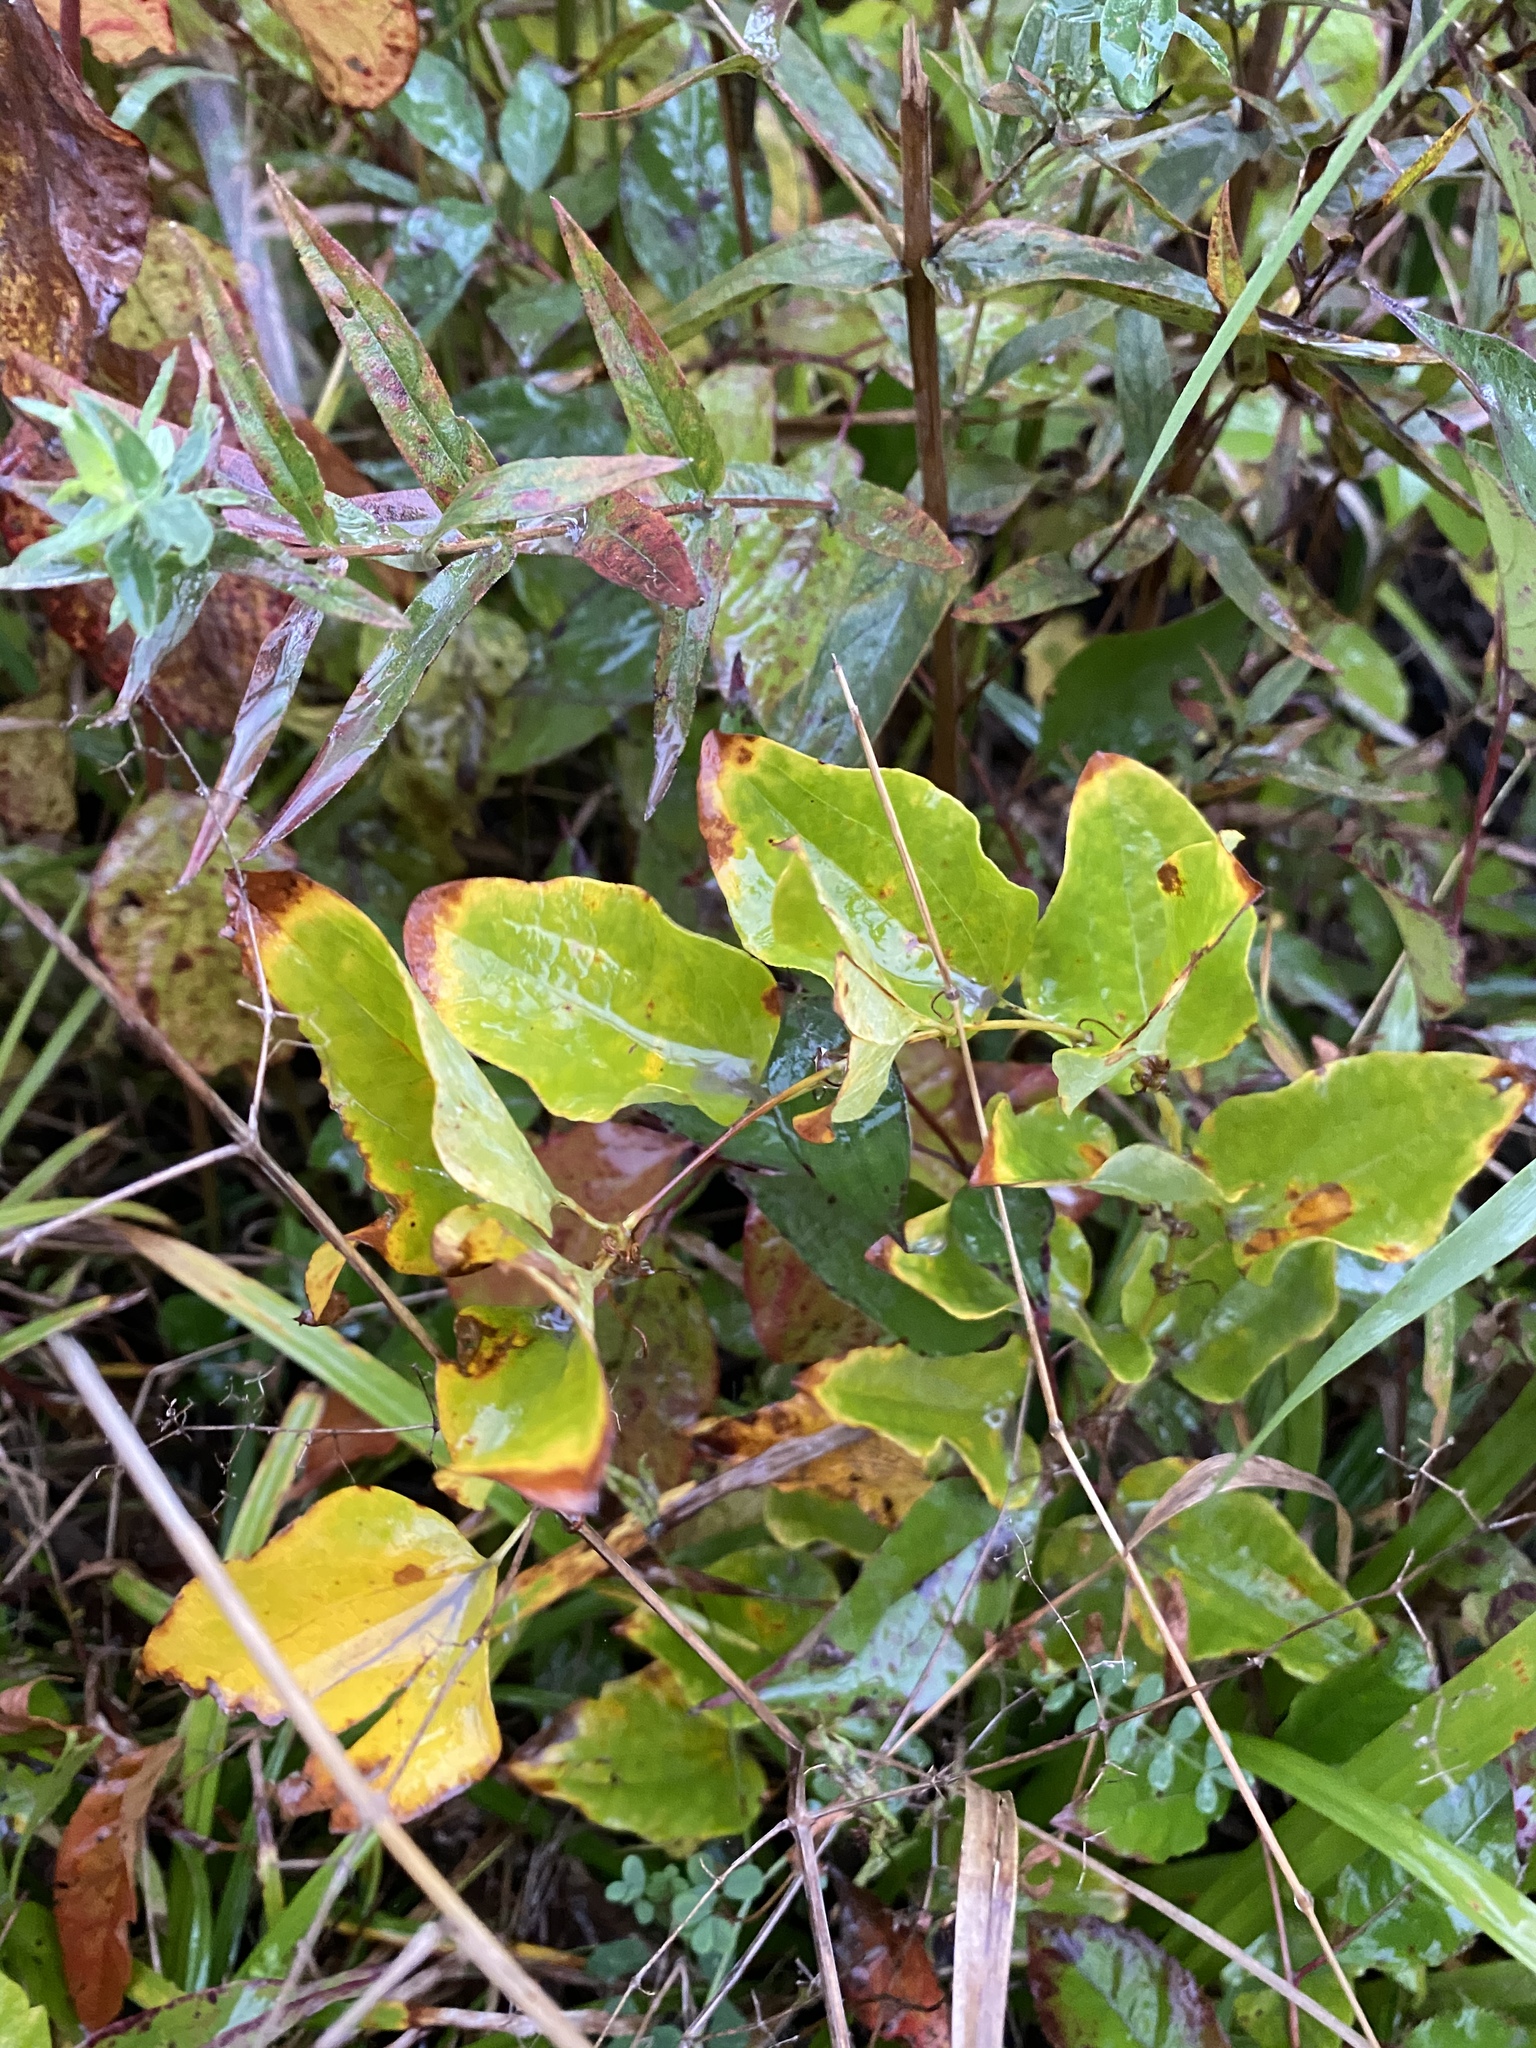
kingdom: Plantae
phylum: Tracheophyta
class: Liliopsida
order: Liliales
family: Smilacaceae
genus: Smilax
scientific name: Smilax herbacea
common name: Jacob's-ladder
